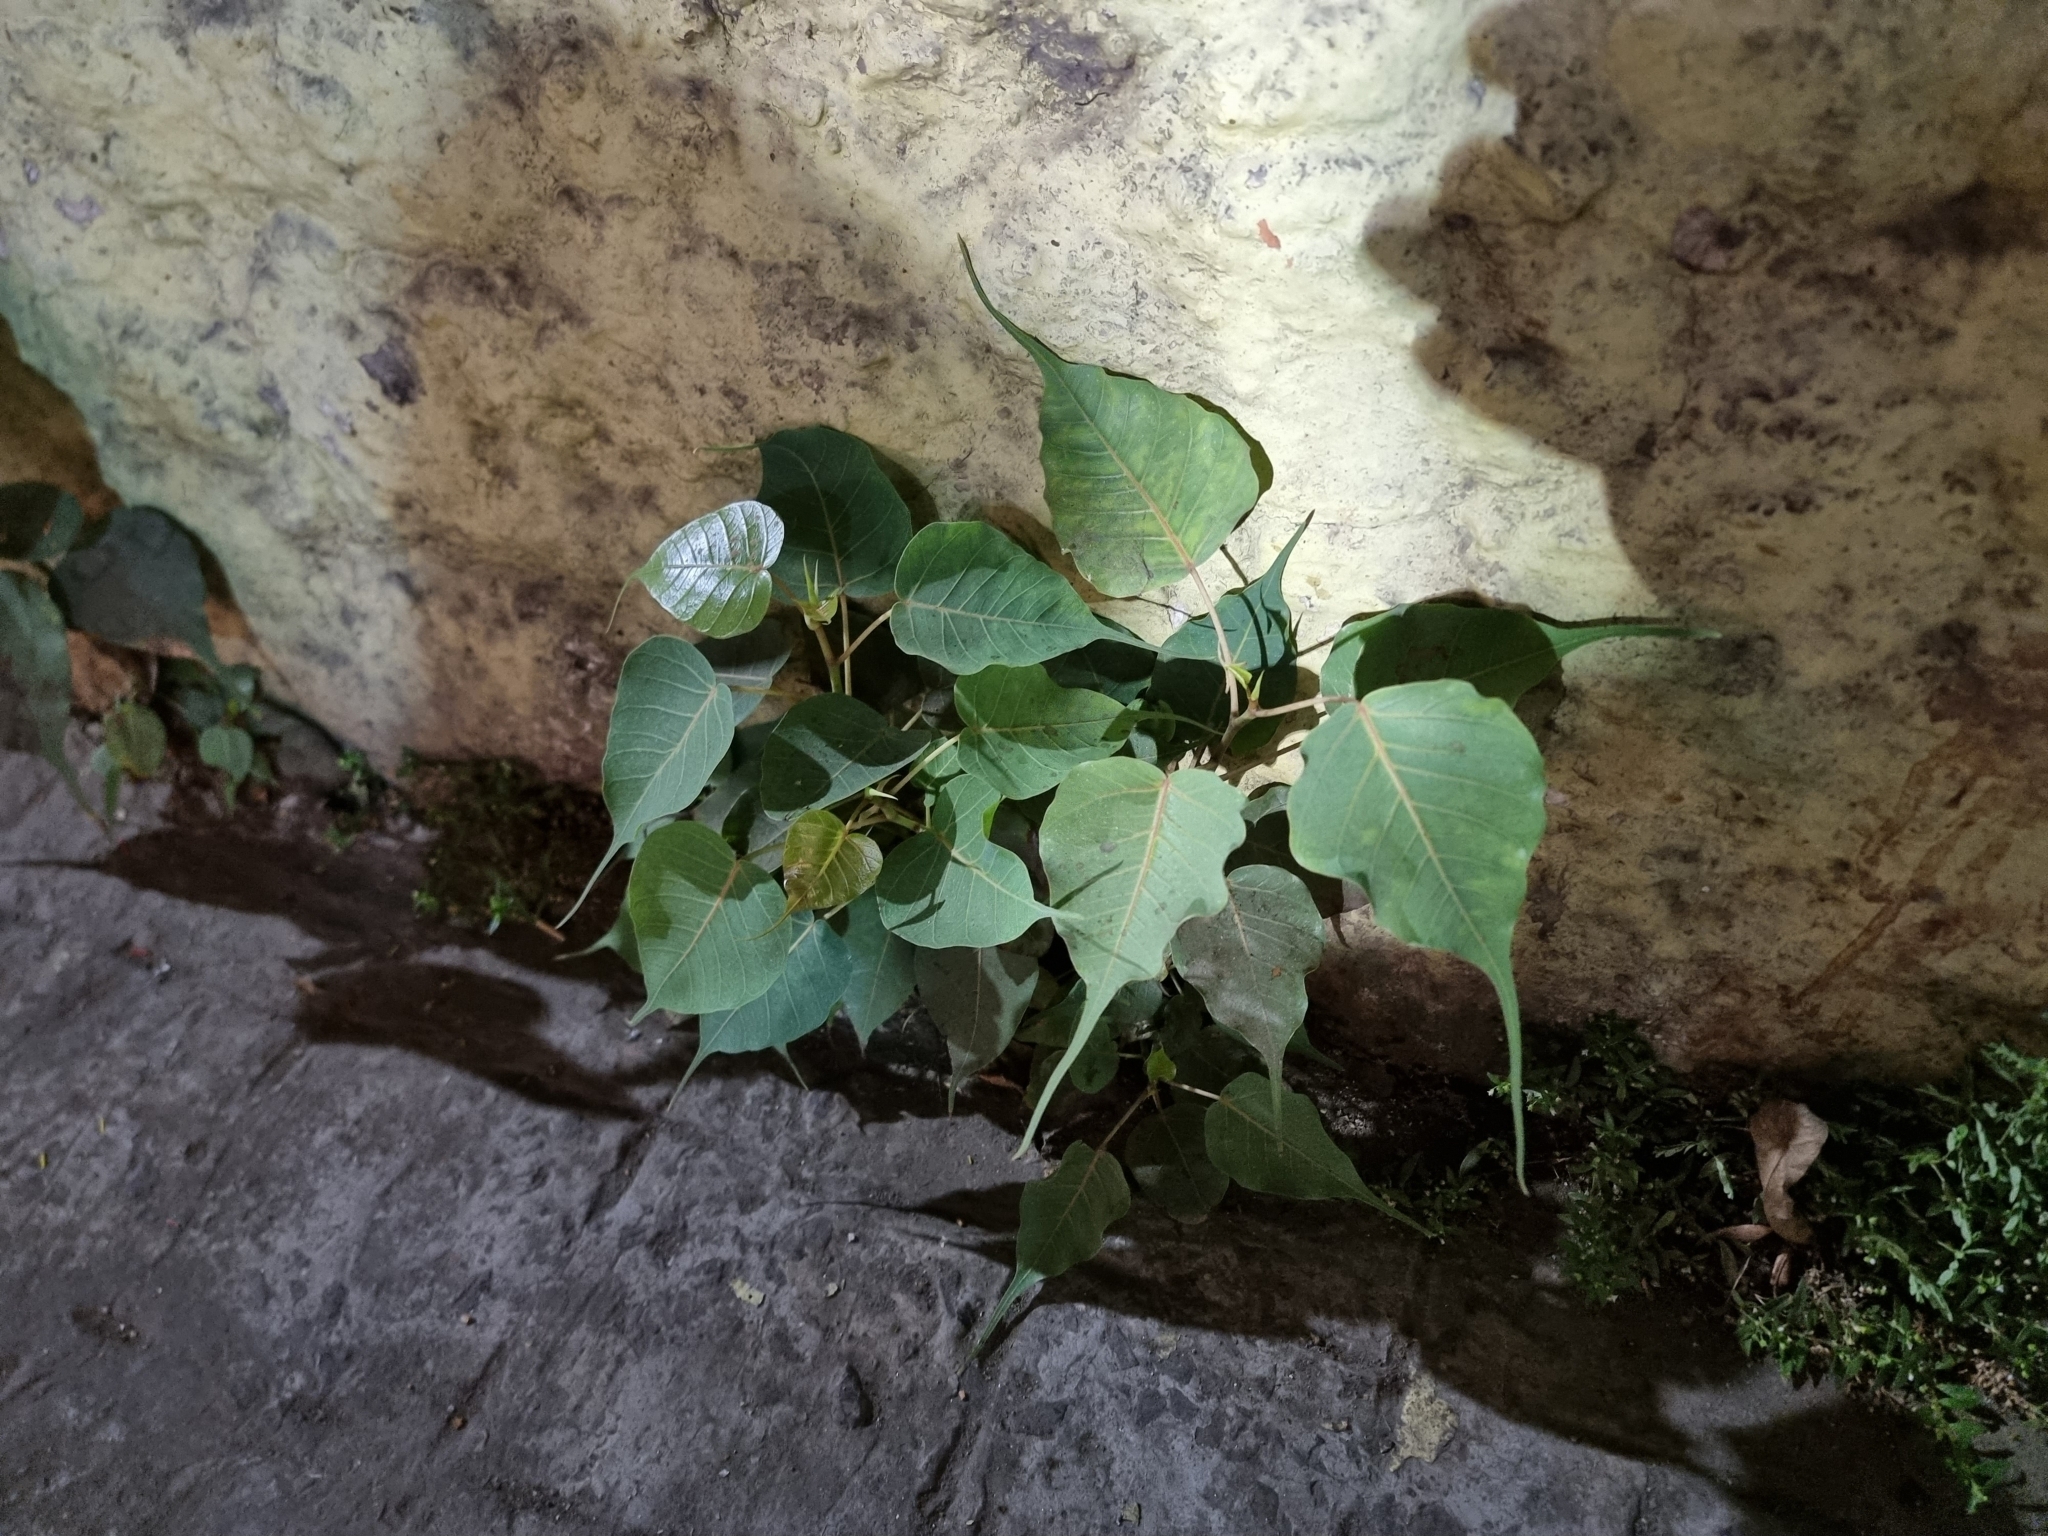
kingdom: Plantae
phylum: Tracheophyta
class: Magnoliopsida
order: Rosales
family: Moraceae
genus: Ficus
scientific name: Ficus religiosa
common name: Bodhi tree
